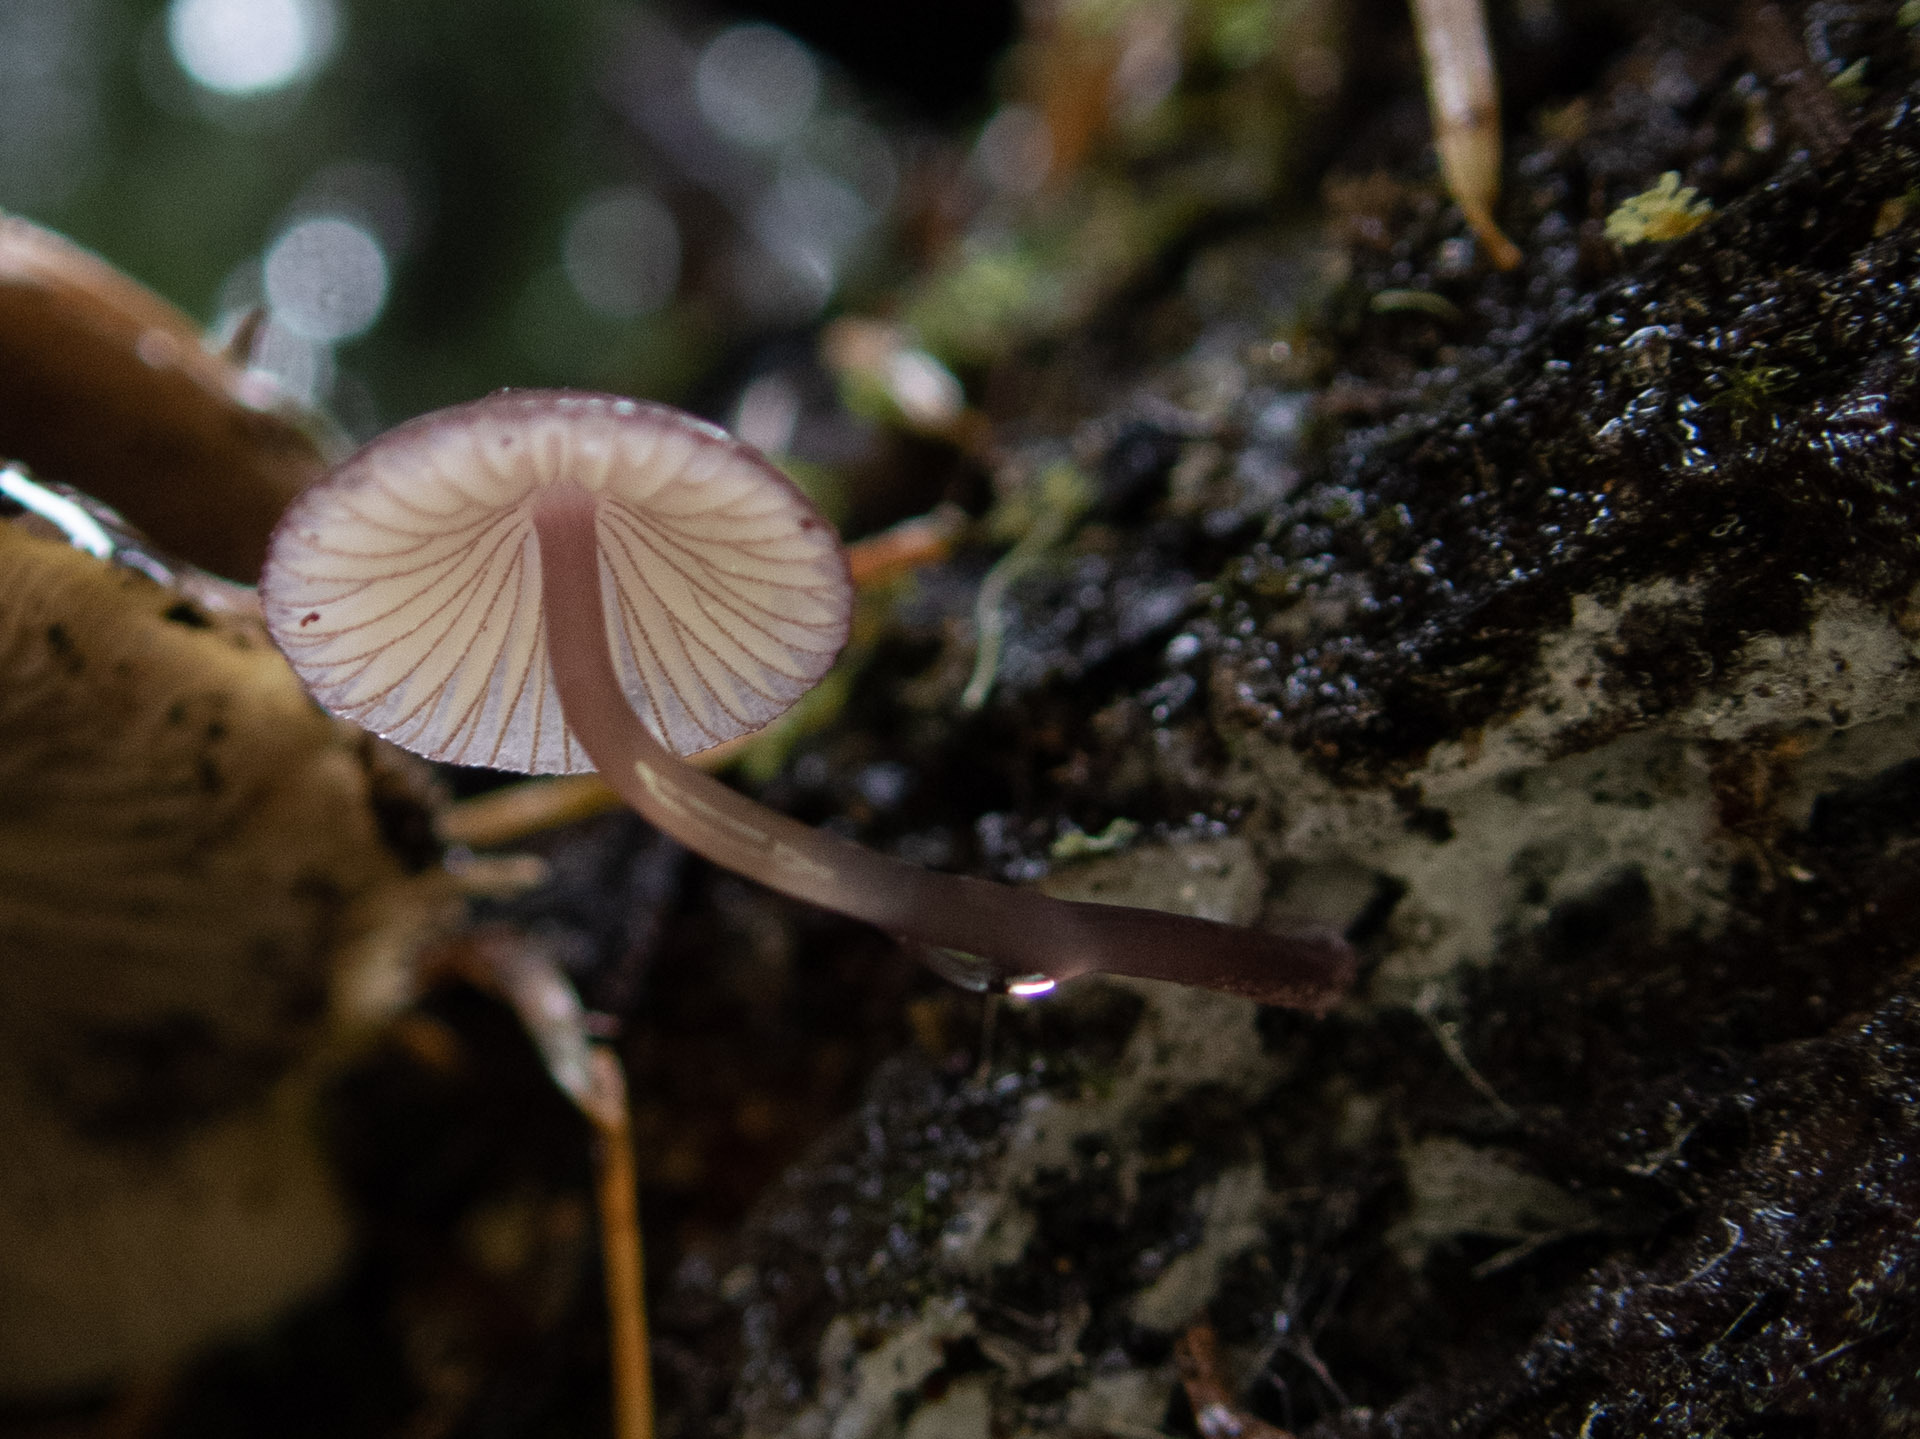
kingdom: Fungi
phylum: Basidiomycota
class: Agaricomycetes
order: Agaricales
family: Mycenaceae
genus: Mycena
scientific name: Mycena purpureofusca
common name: Purple edge bonnet
